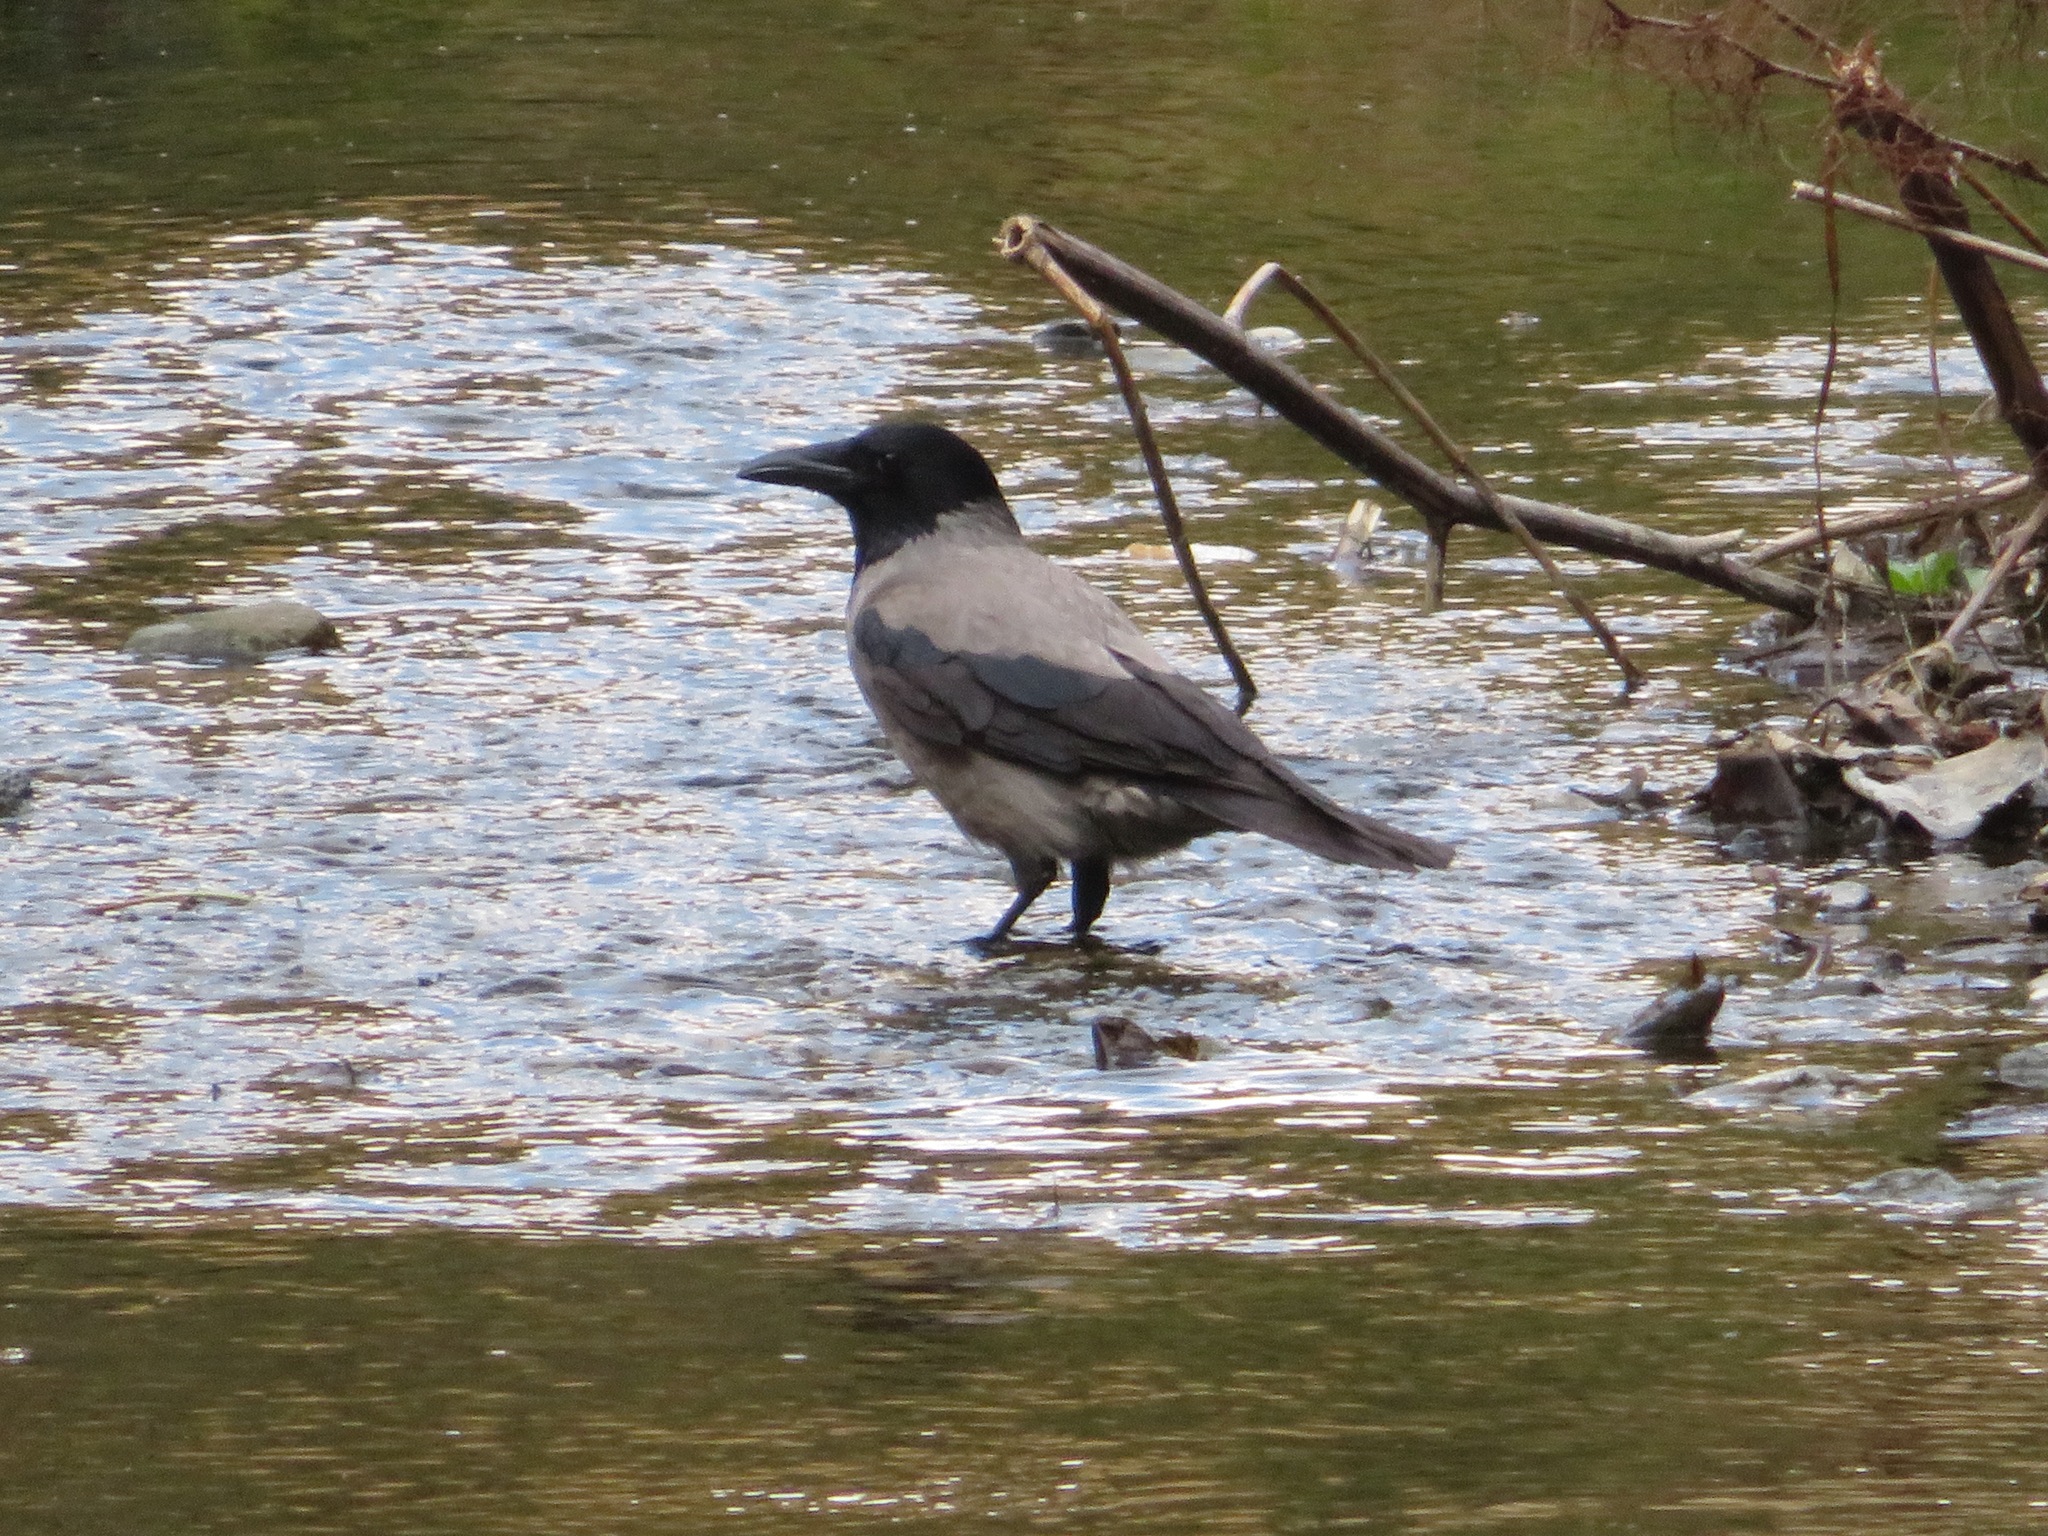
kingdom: Animalia
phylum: Chordata
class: Aves
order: Passeriformes
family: Corvidae
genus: Corvus
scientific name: Corvus cornix
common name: Hooded crow
